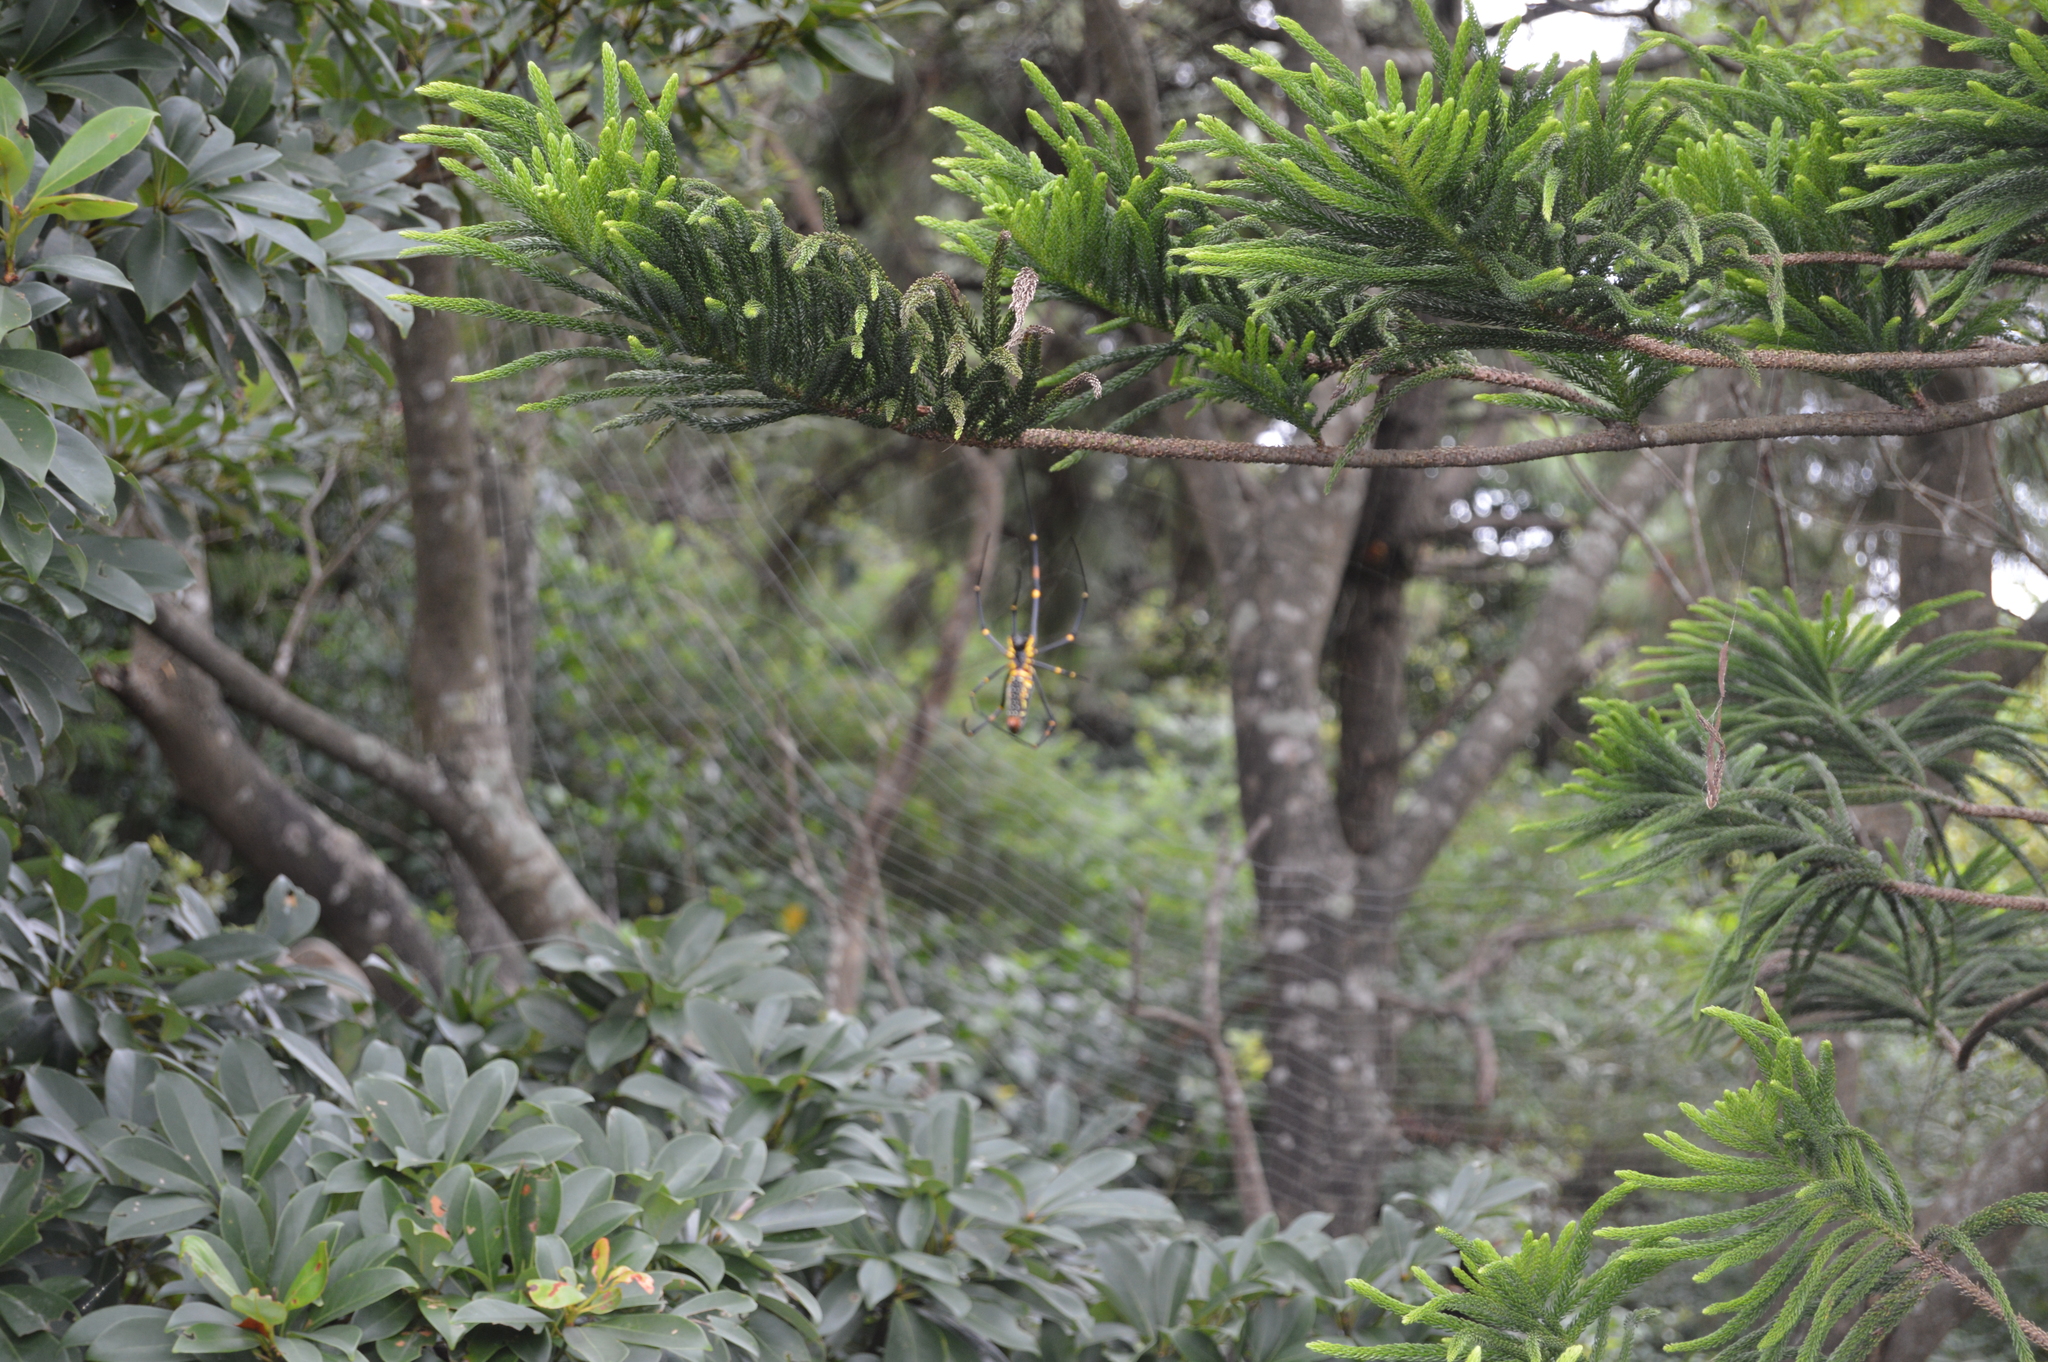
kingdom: Animalia
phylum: Arthropoda
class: Arachnida
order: Araneae
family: Araneidae
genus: Nephila
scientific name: Nephila pilipes
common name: Giant golden orb weaver
